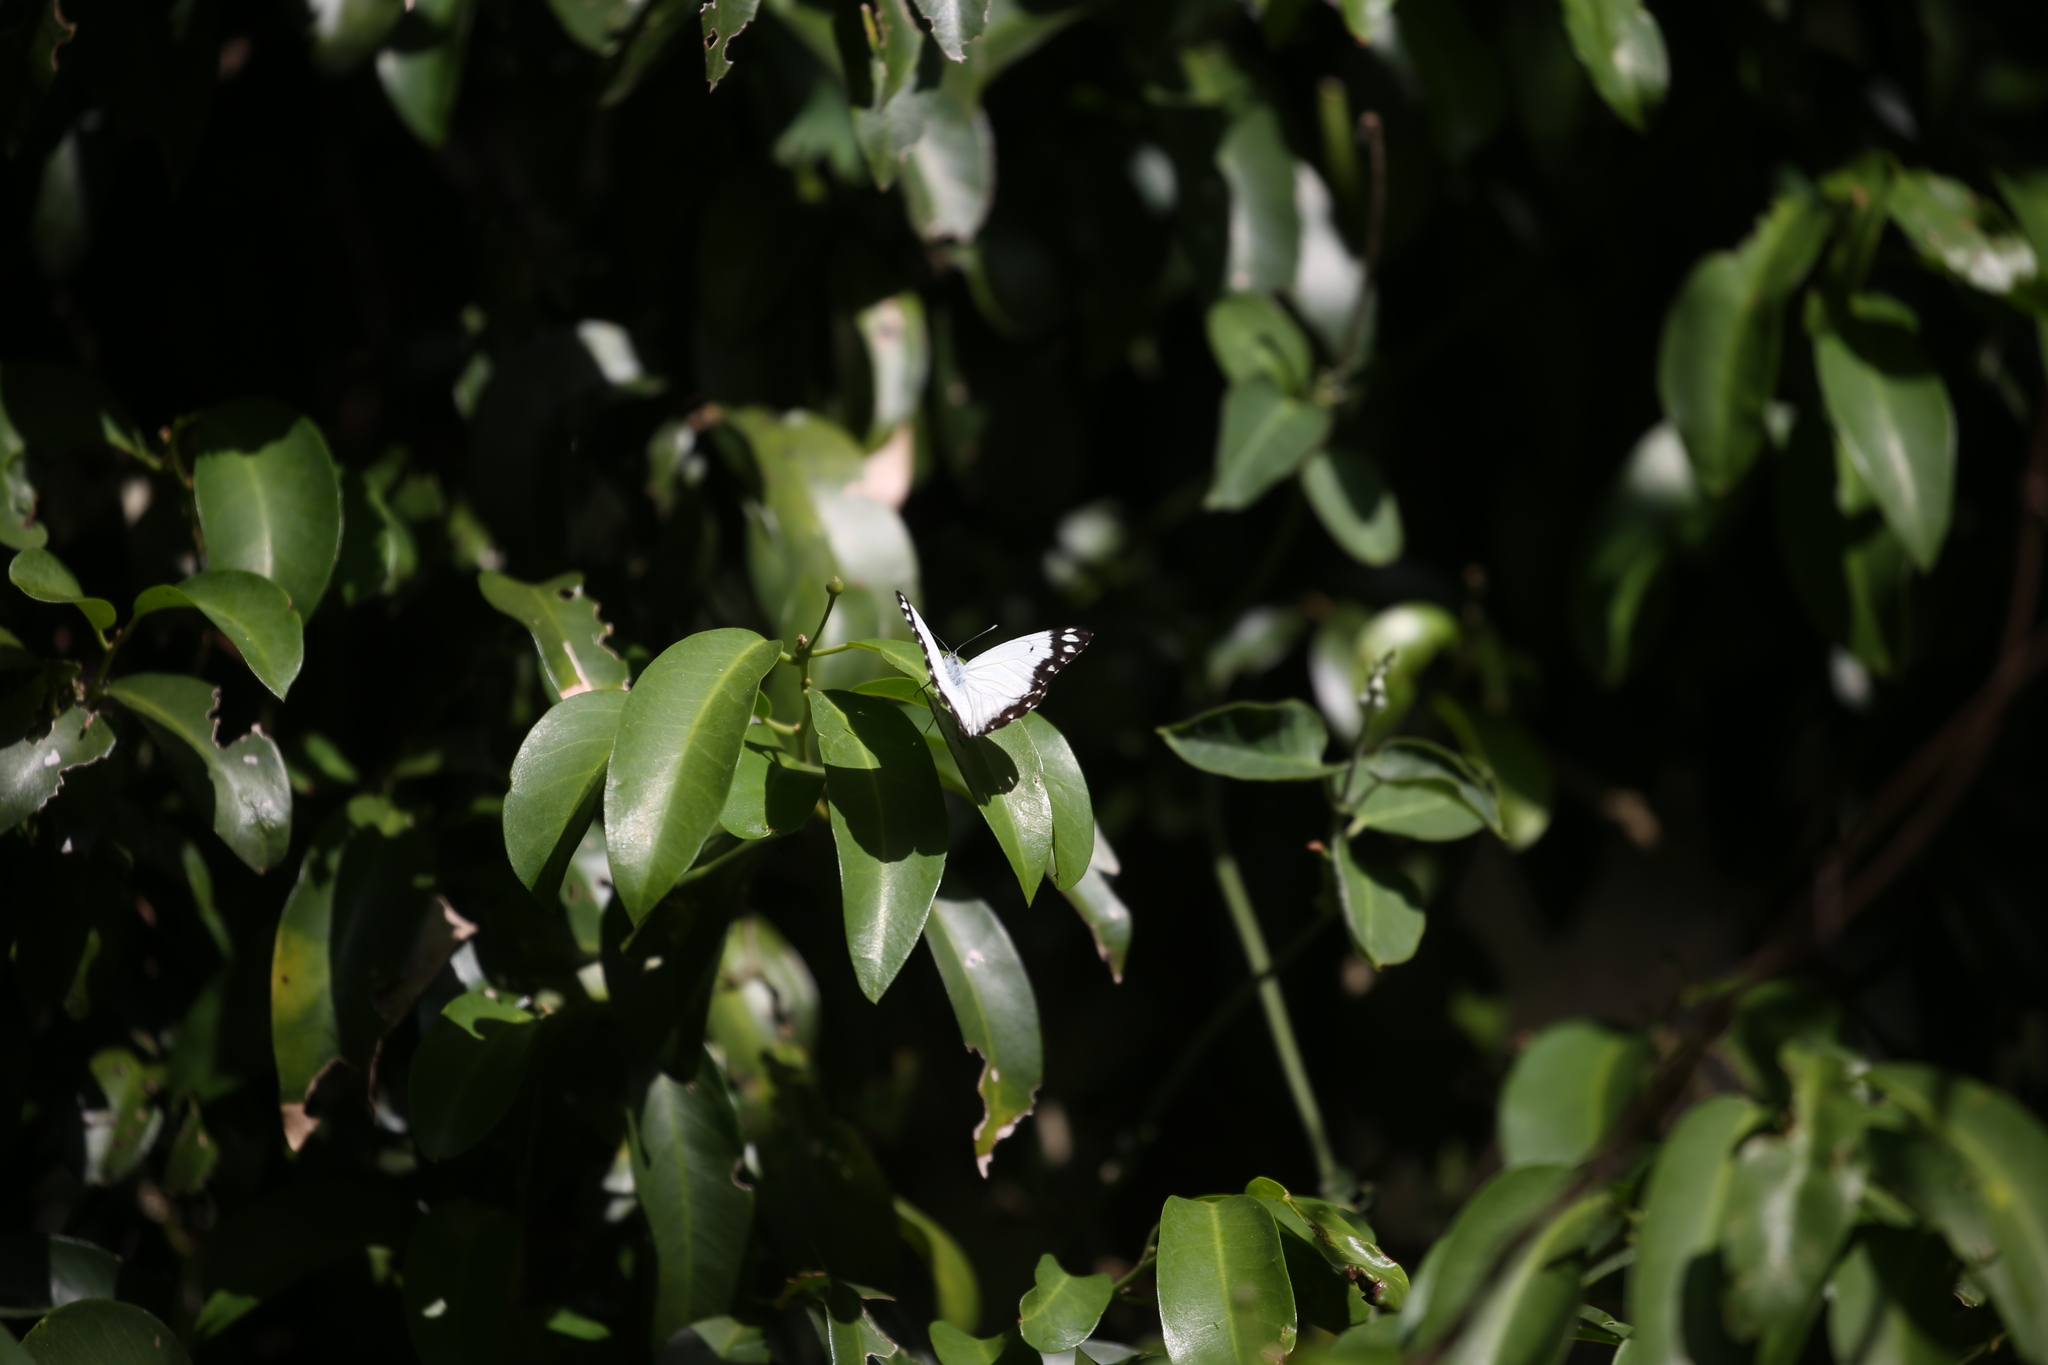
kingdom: Animalia
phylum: Arthropoda
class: Insecta
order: Lepidoptera
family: Pieridae
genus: Belenois
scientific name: Belenois java
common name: Caper white
